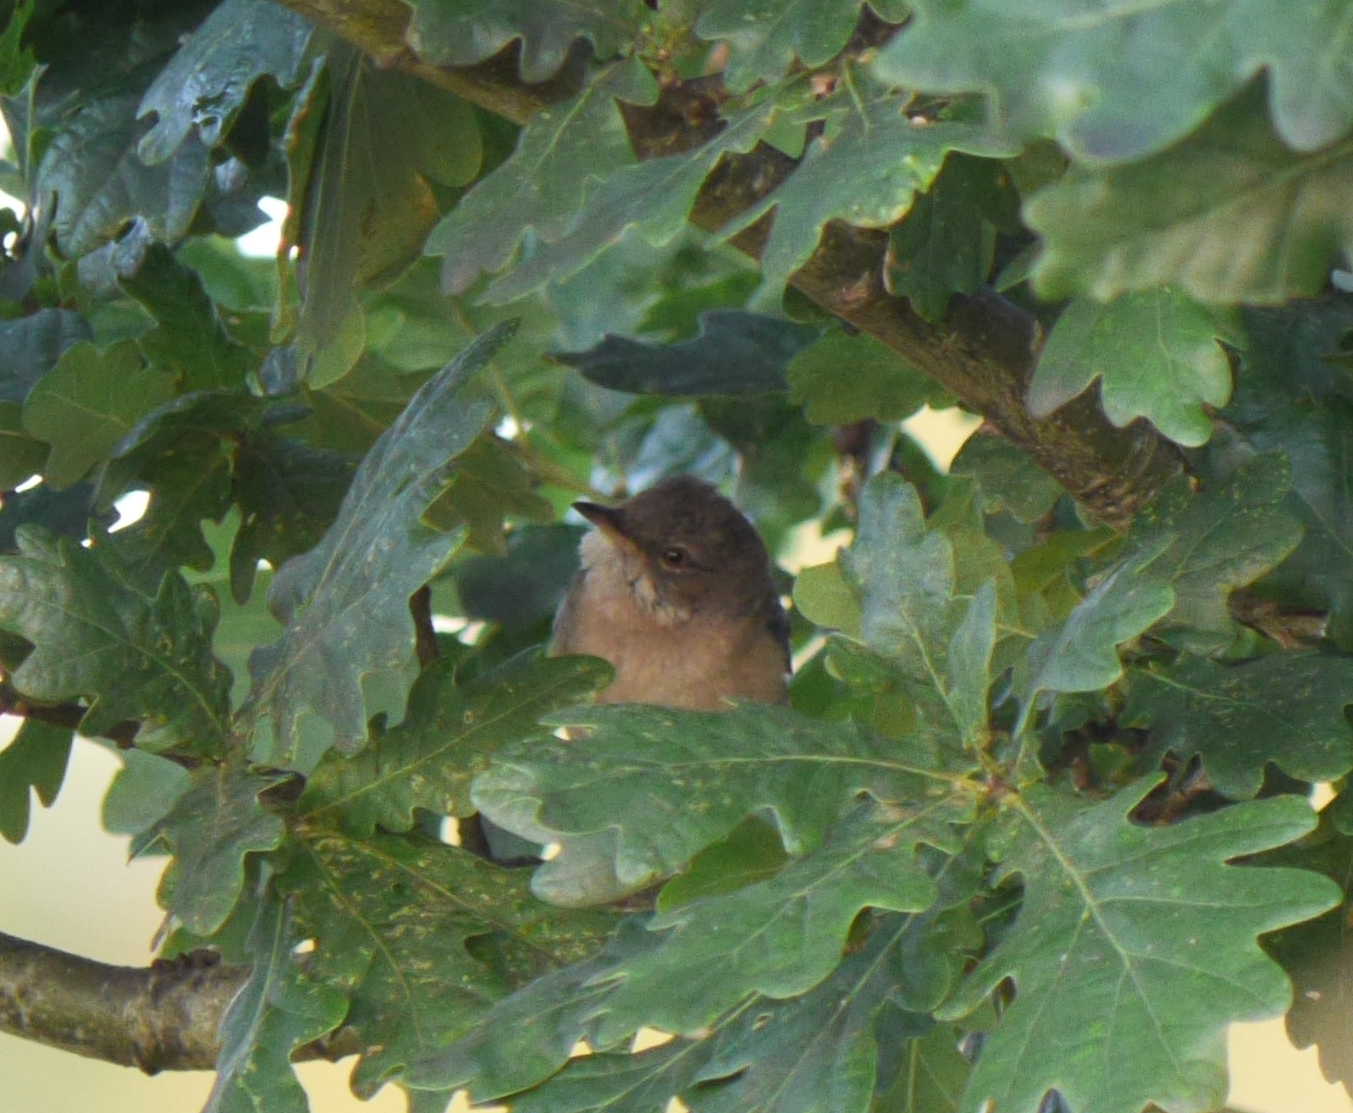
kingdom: Animalia
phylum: Chordata
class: Aves
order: Passeriformes
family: Sylviidae
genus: Sylvia
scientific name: Sylvia communis
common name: Common whitethroat
